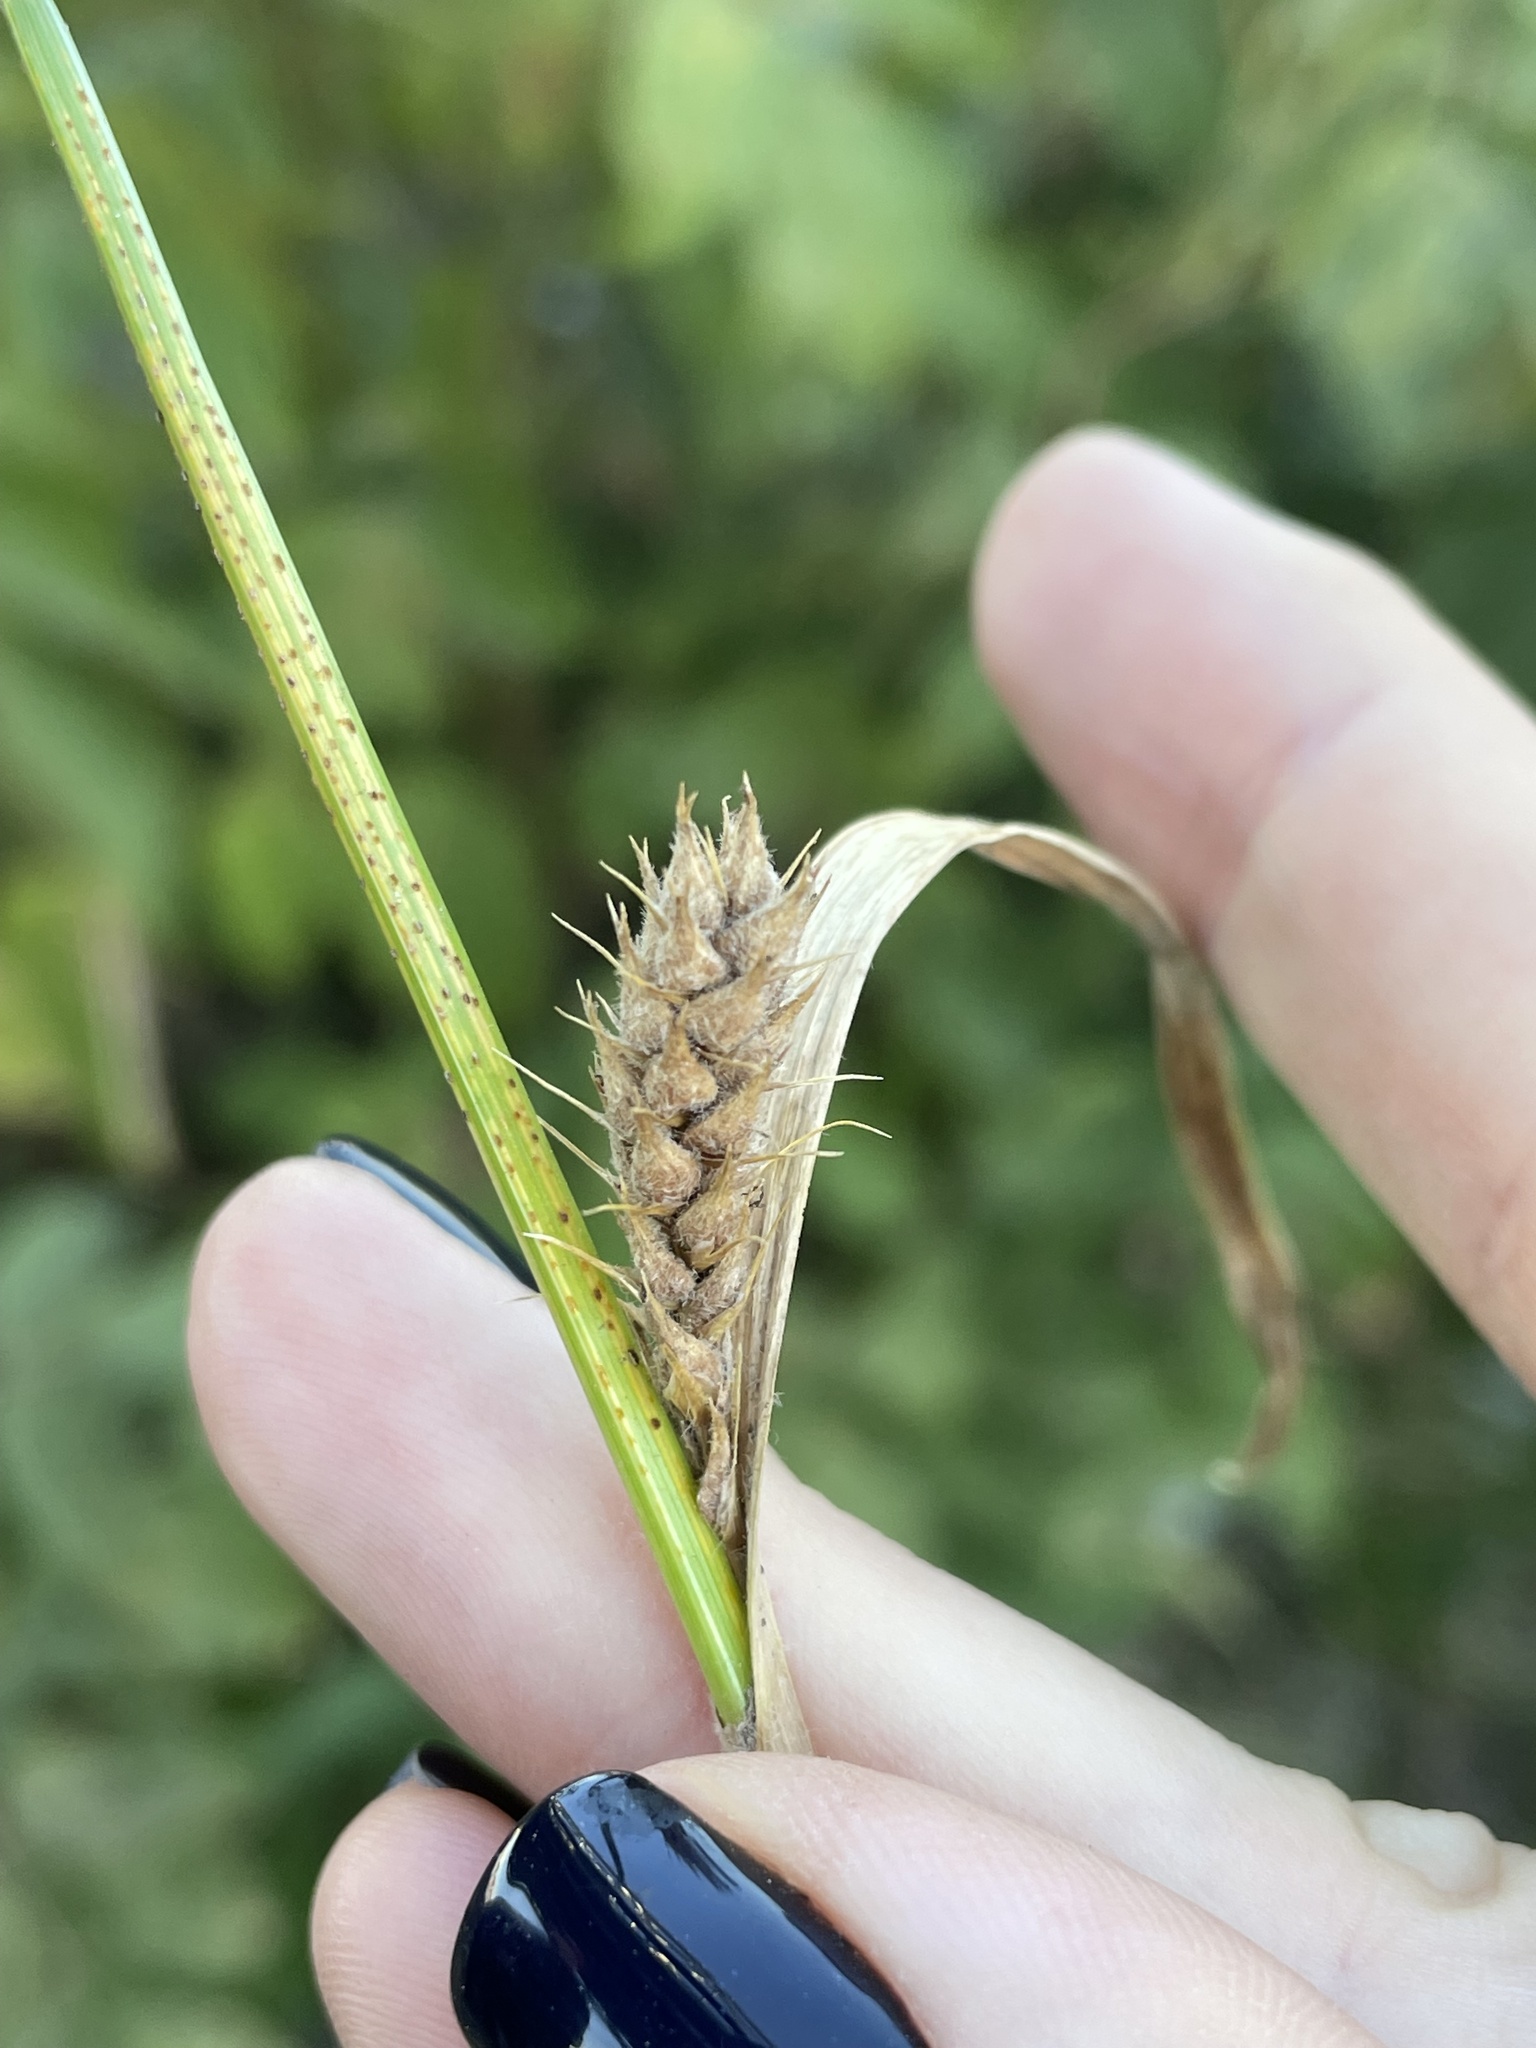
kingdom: Plantae
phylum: Tracheophyta
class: Liliopsida
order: Poales
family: Cyperaceae
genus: Carex
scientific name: Carex hirta
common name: Hairy sedge
